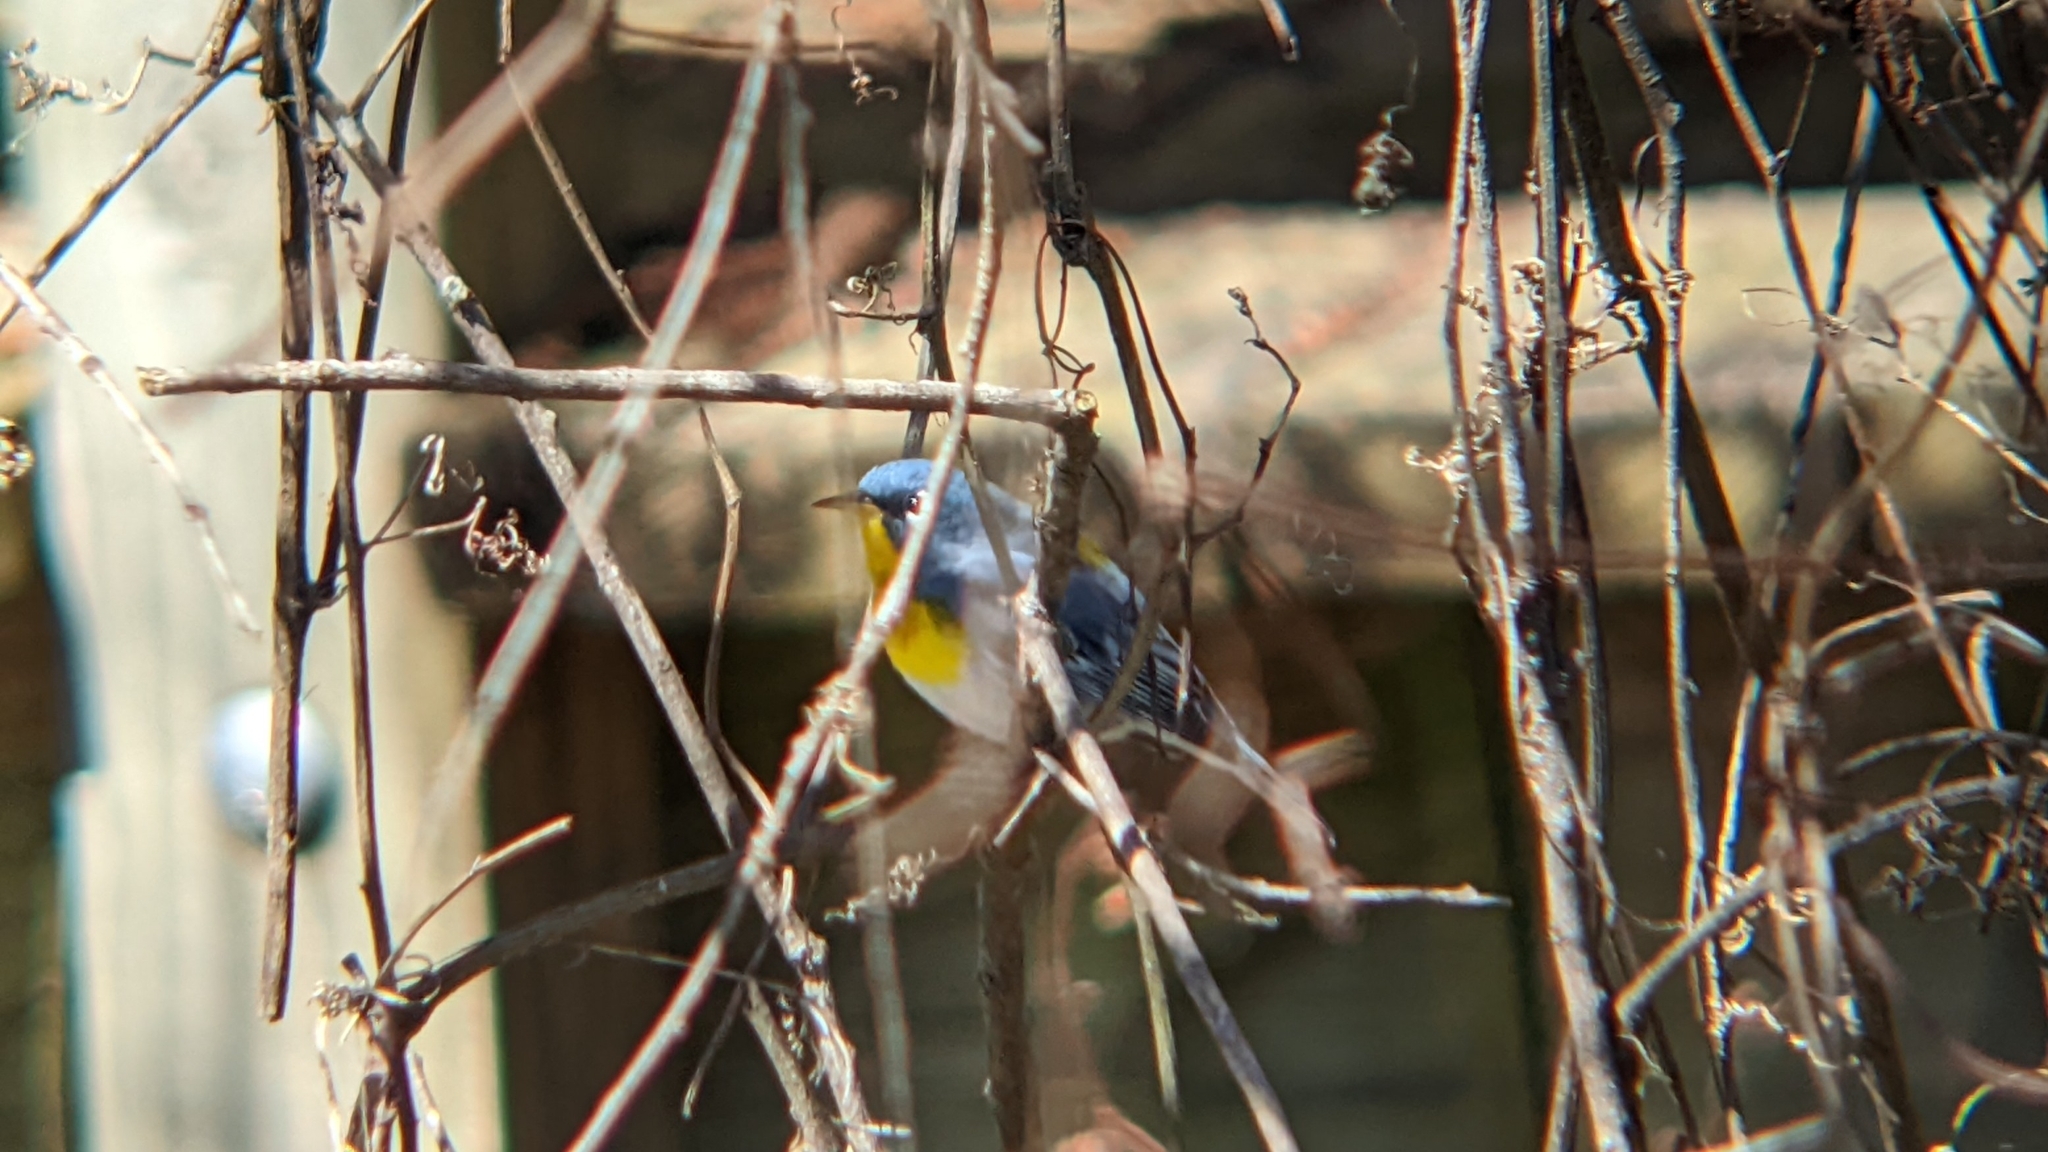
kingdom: Animalia
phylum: Chordata
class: Aves
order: Passeriformes
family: Parulidae
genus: Setophaga
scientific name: Setophaga americana
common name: Northern parula
